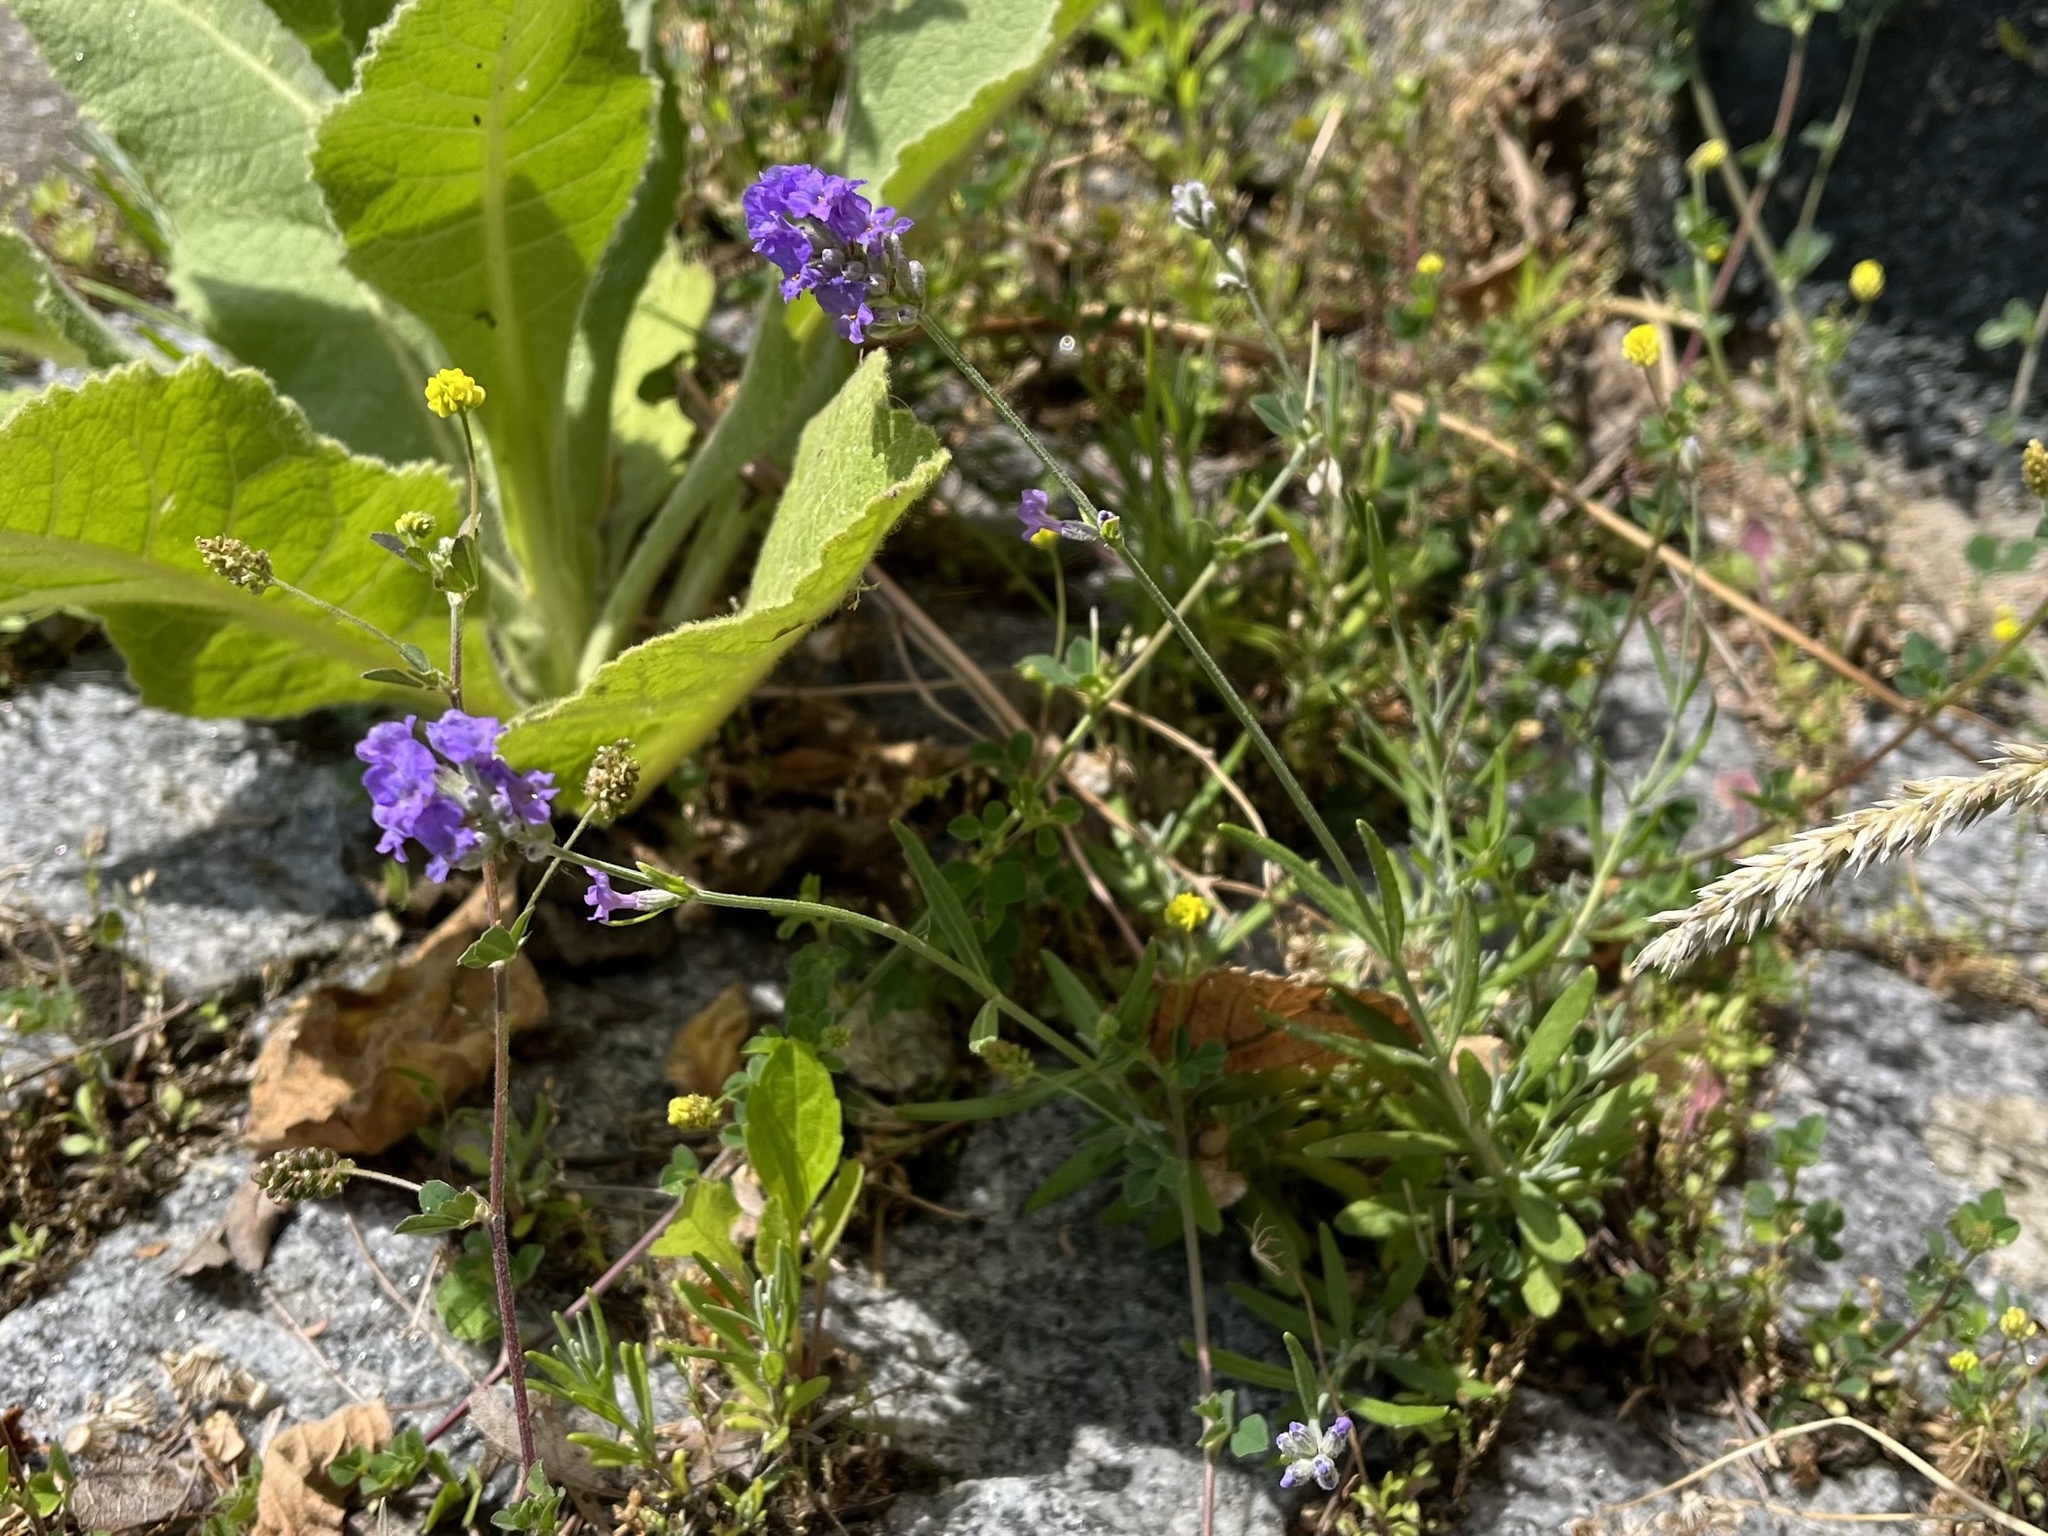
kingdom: Plantae
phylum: Tracheophyta
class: Magnoliopsida
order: Lamiales
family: Lamiaceae
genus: Lavandula
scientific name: Lavandula angustifolia
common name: Garden lavender
